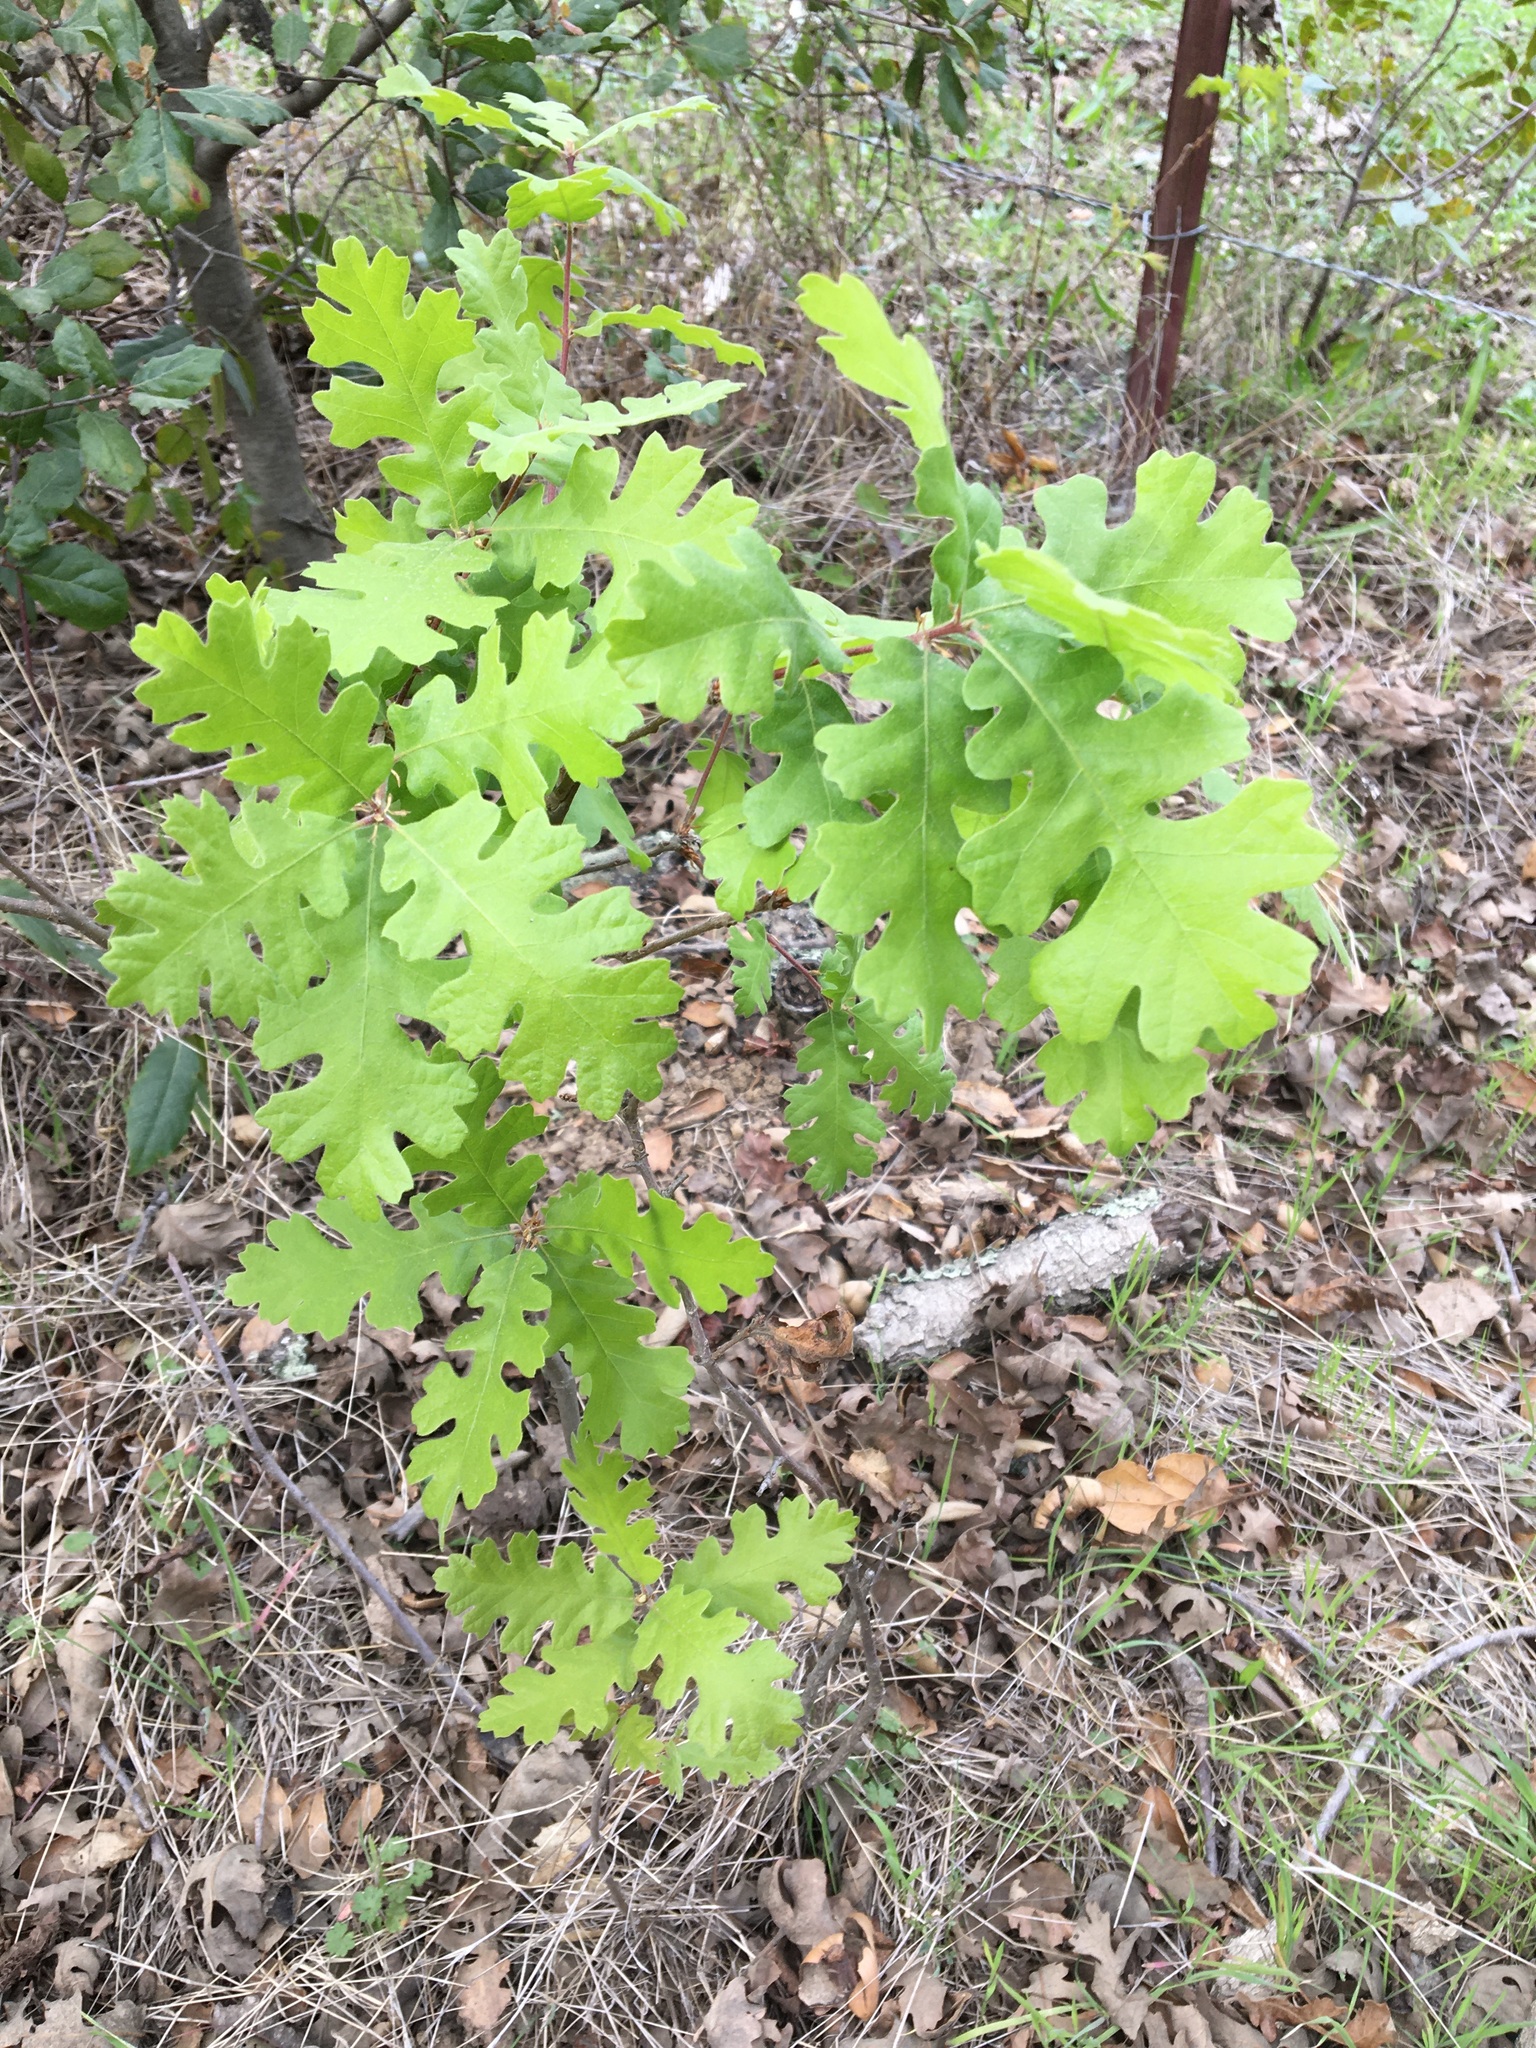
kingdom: Plantae
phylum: Tracheophyta
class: Magnoliopsida
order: Fagales
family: Fagaceae
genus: Quercus
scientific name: Quercus lobata
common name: Valley oak
